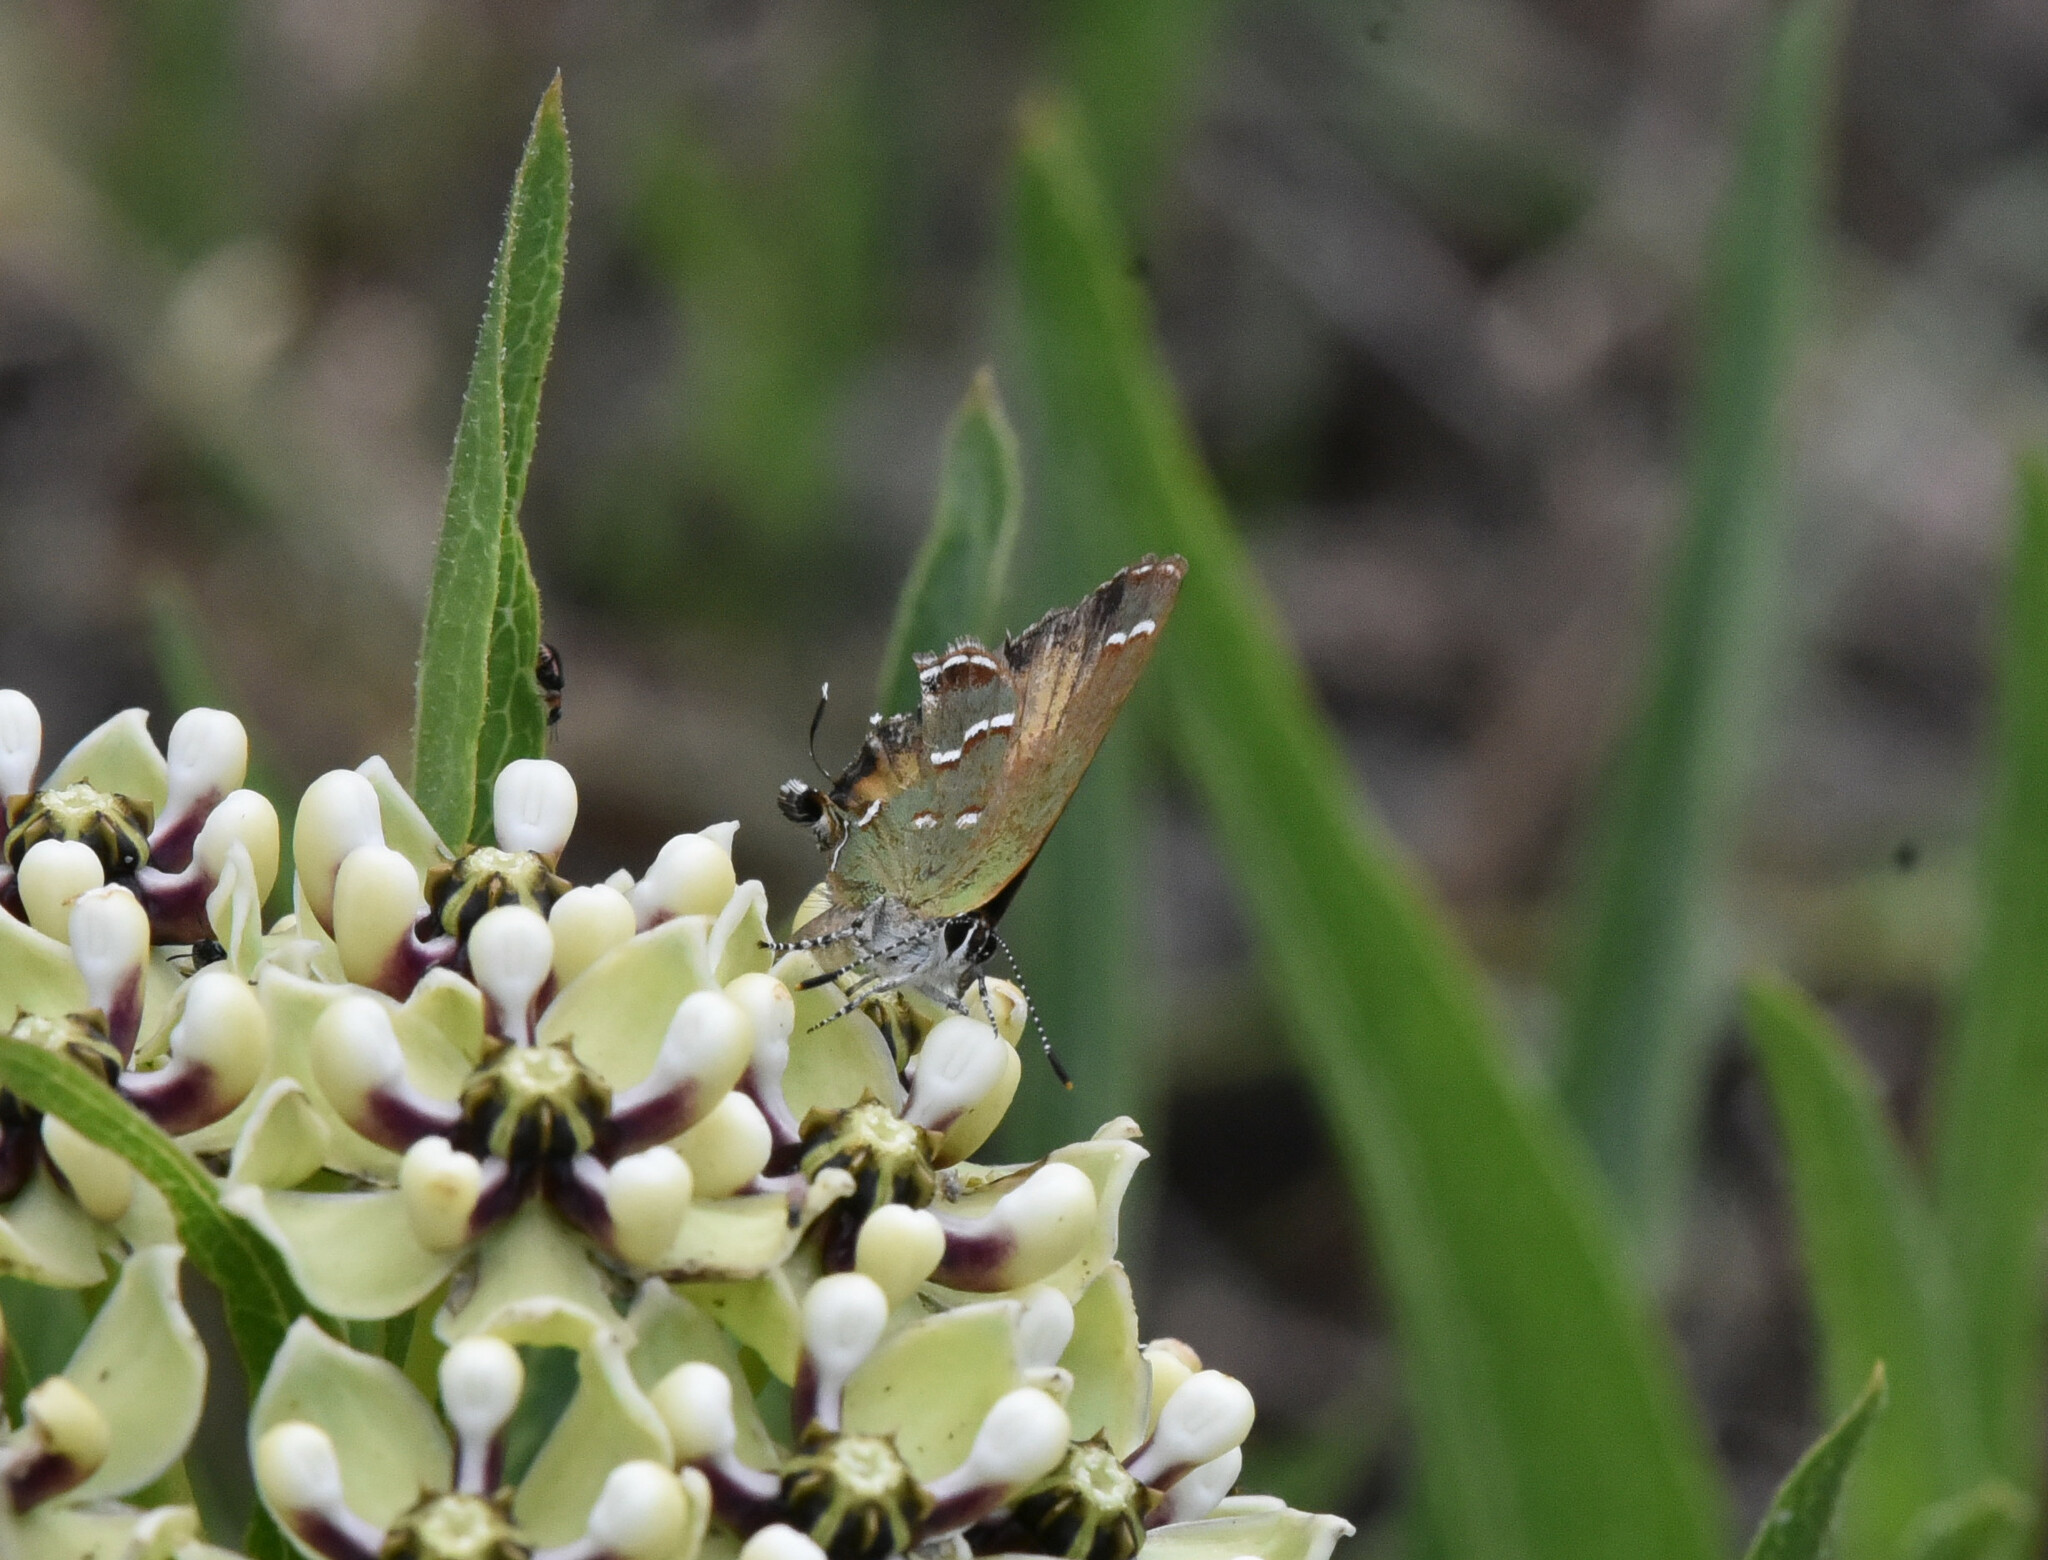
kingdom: Animalia
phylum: Arthropoda
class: Insecta
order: Lepidoptera
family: Lycaenidae
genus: Mitoura
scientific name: Mitoura gryneus
